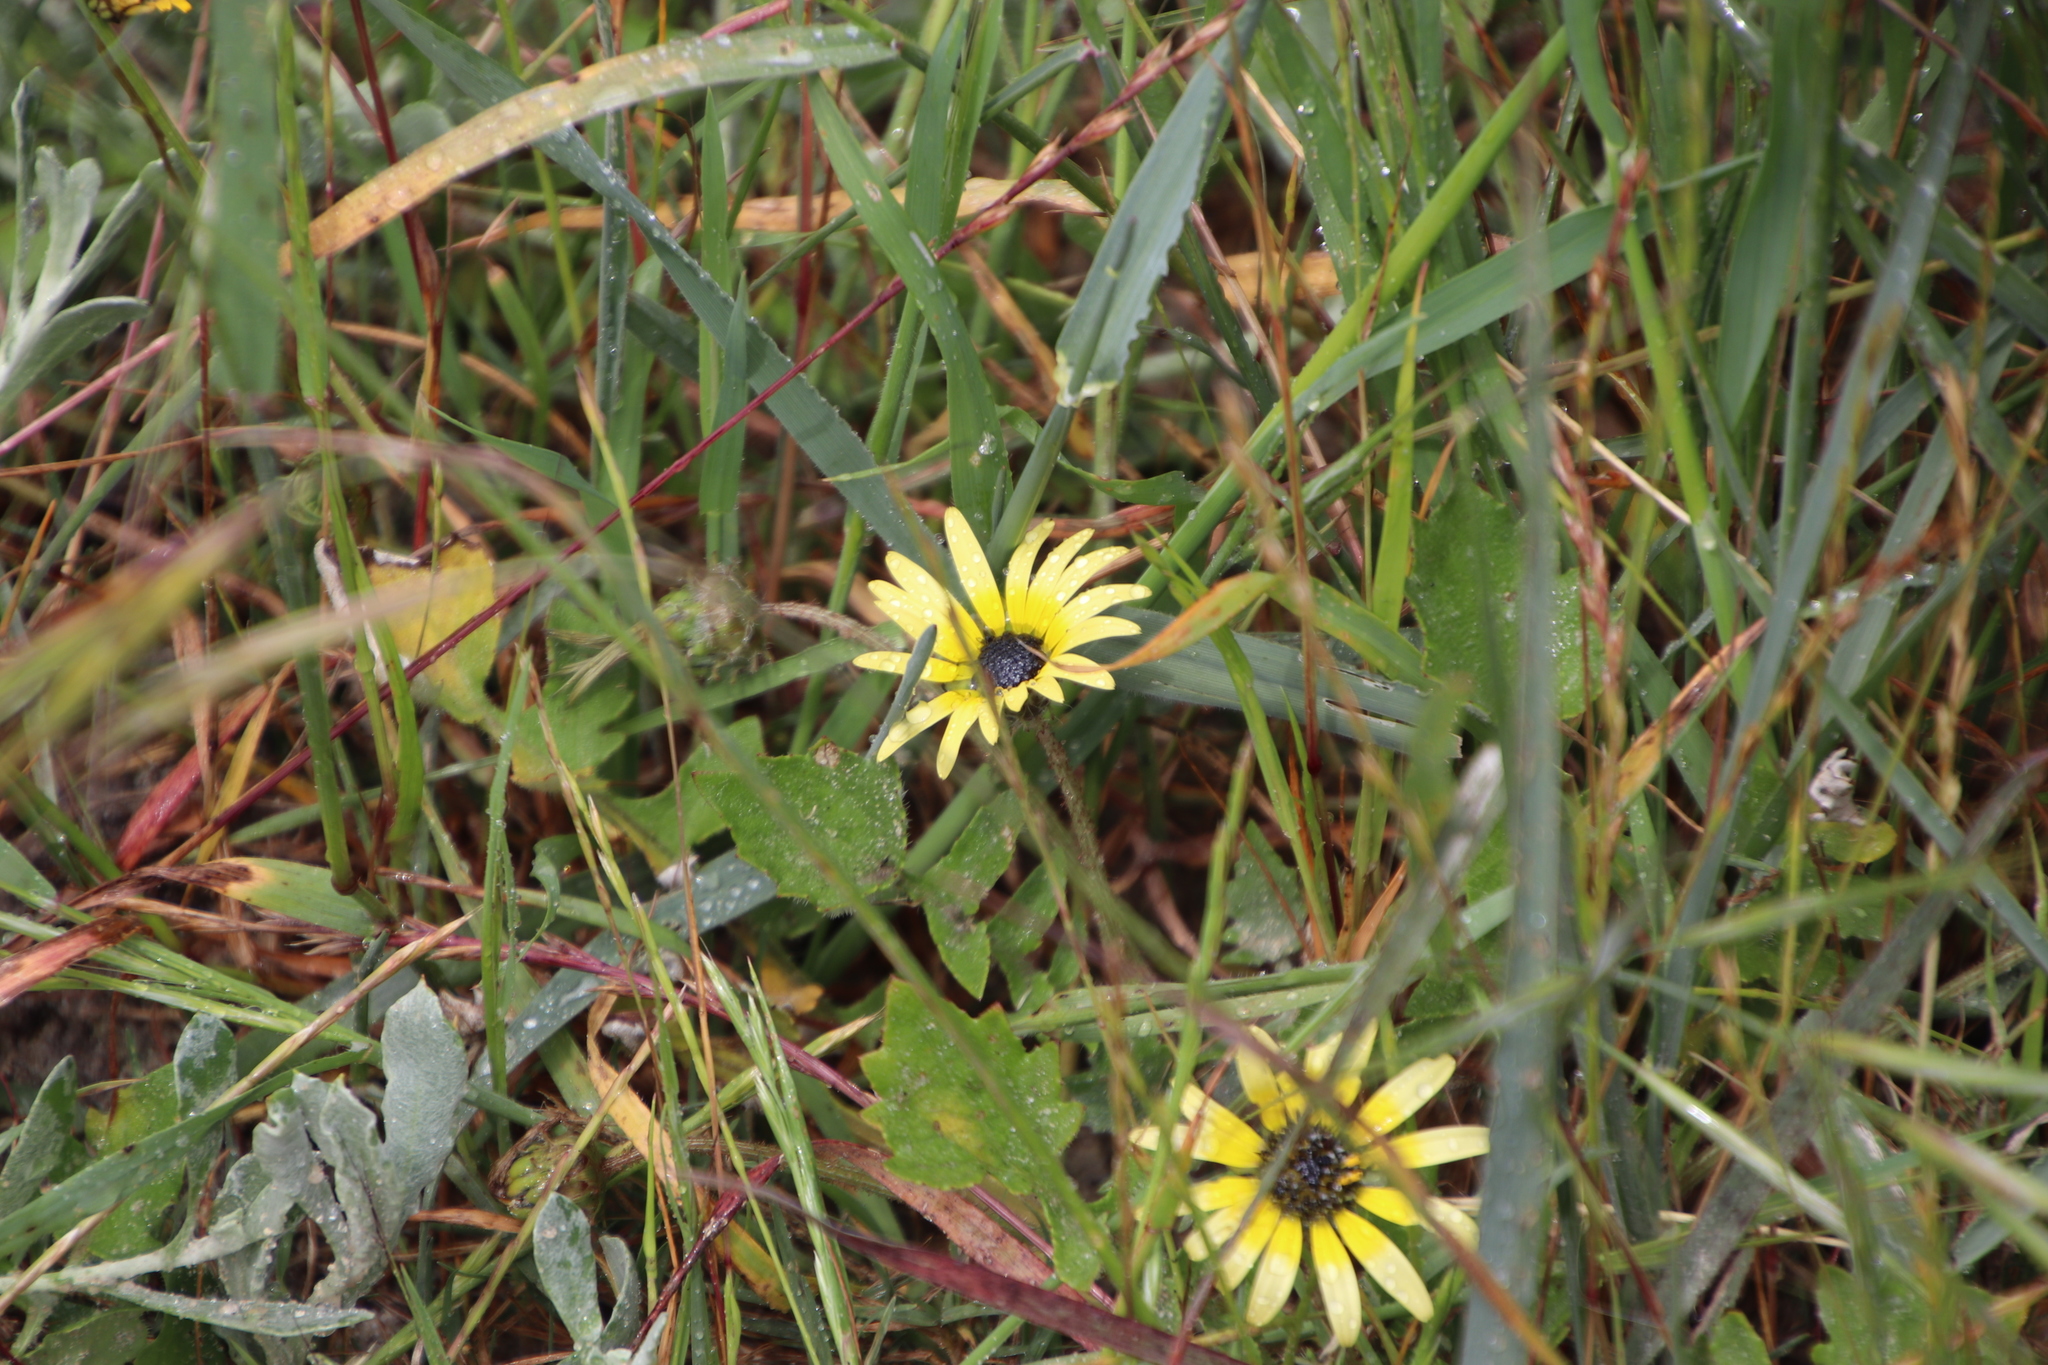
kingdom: Plantae
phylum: Tracheophyta
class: Magnoliopsida
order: Asterales
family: Asteraceae
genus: Arctotheca
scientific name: Arctotheca calendula
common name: Capeweed
